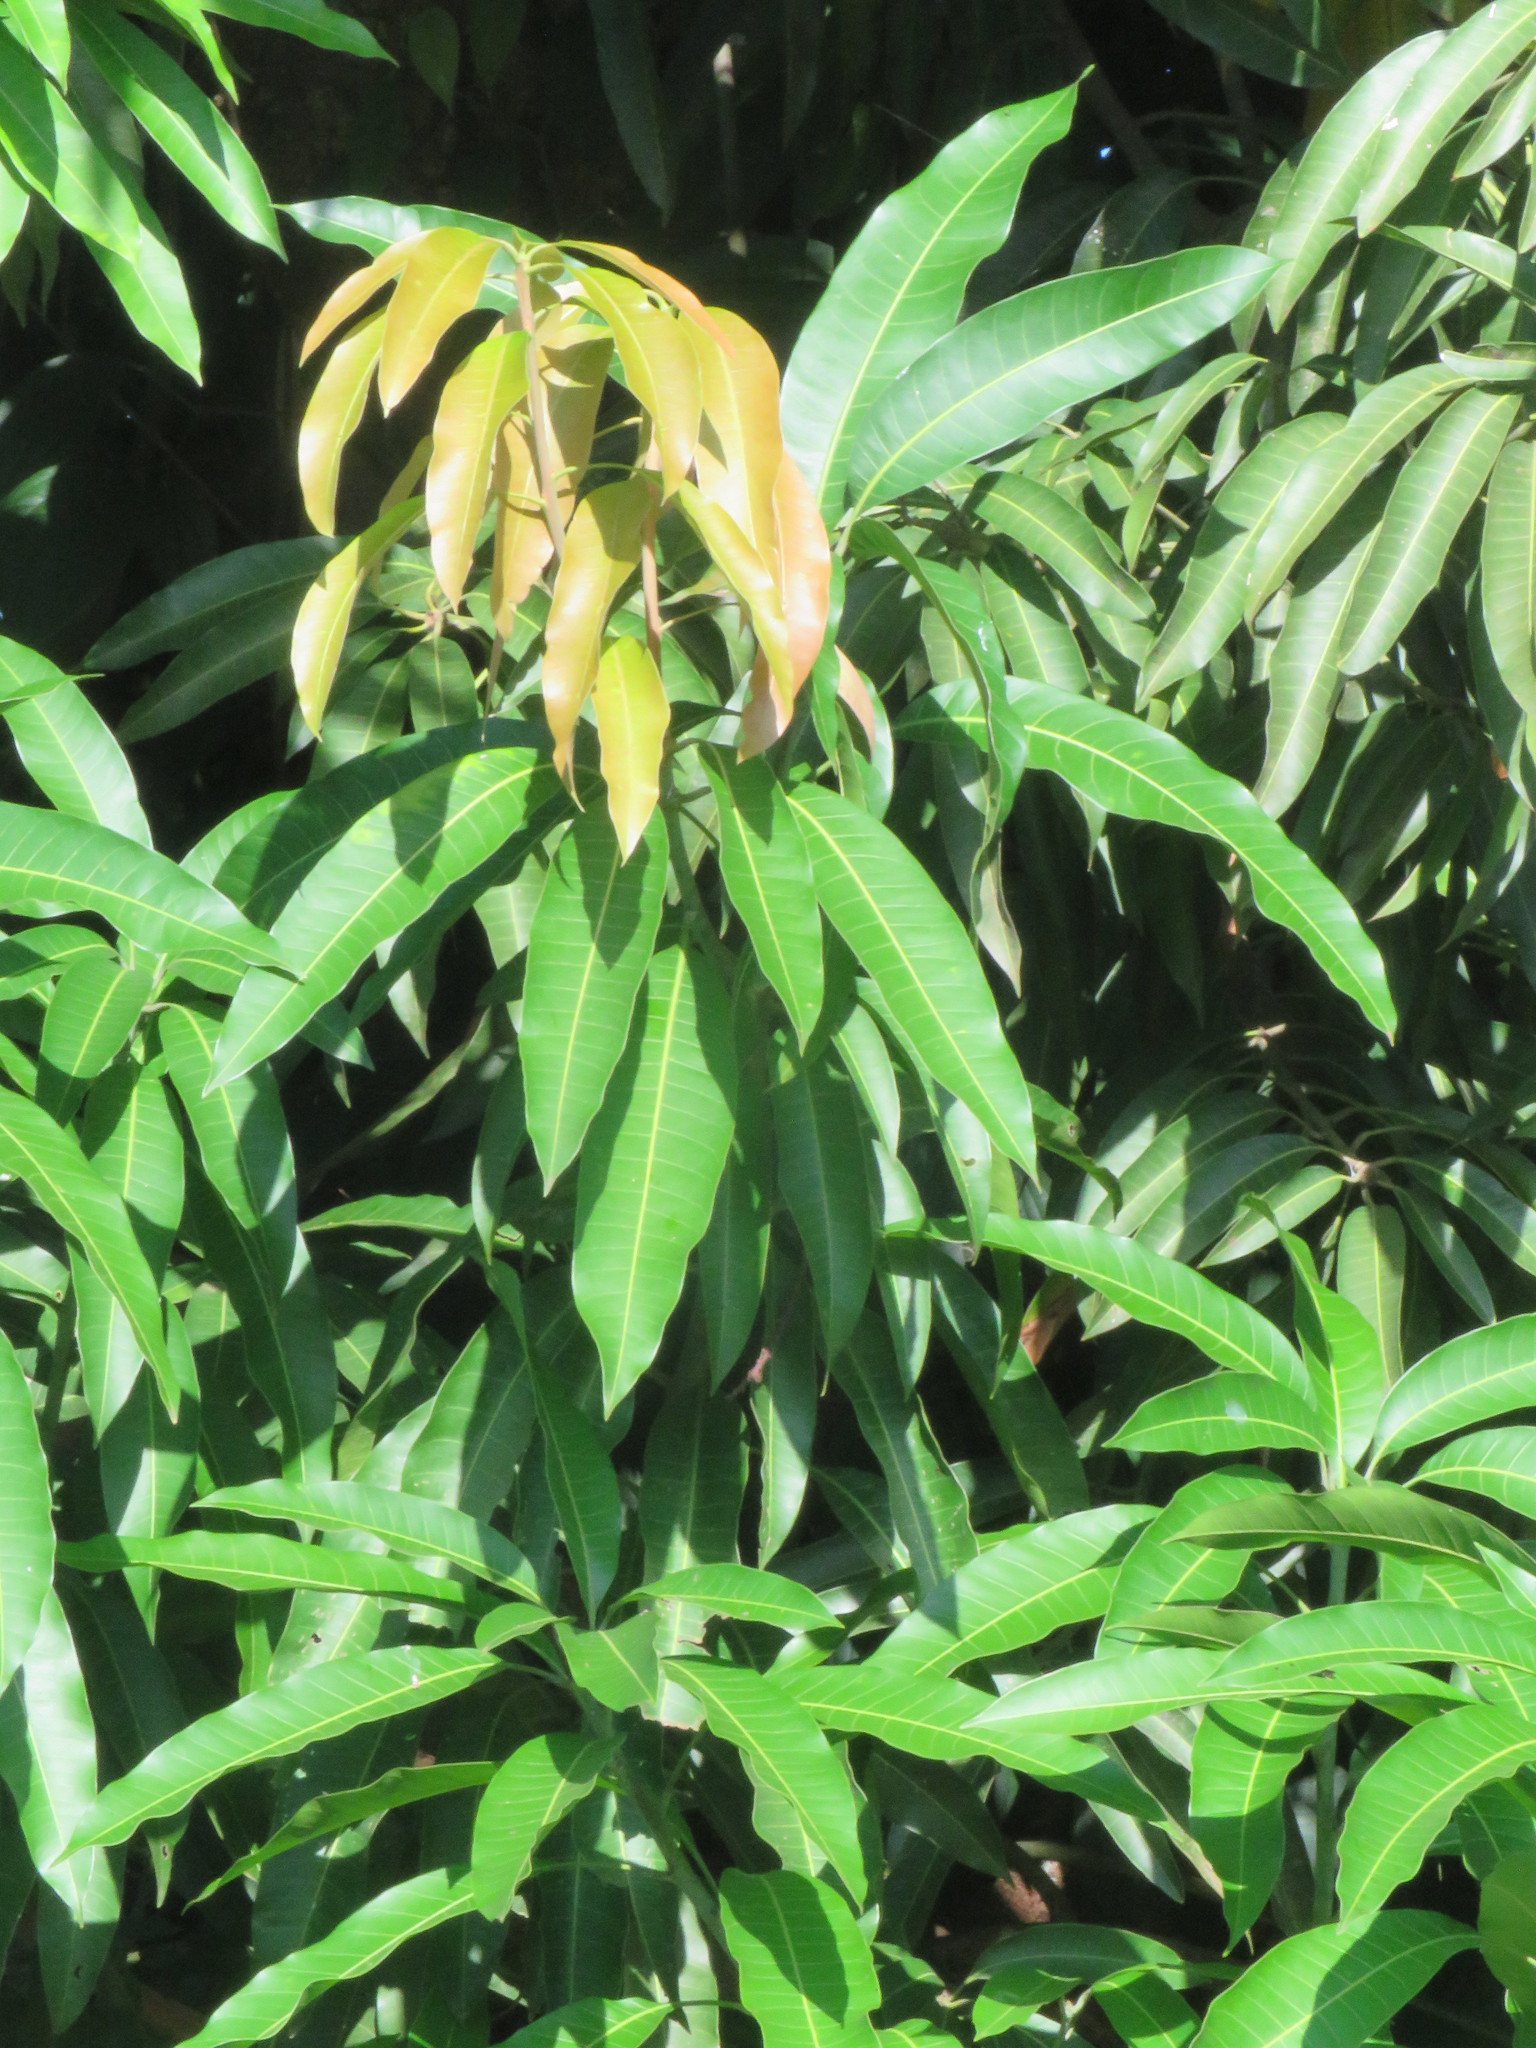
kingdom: Plantae
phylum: Tracheophyta
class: Magnoliopsida
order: Sapindales
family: Anacardiaceae
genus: Mangifera
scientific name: Mangifera indica
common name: Mango
